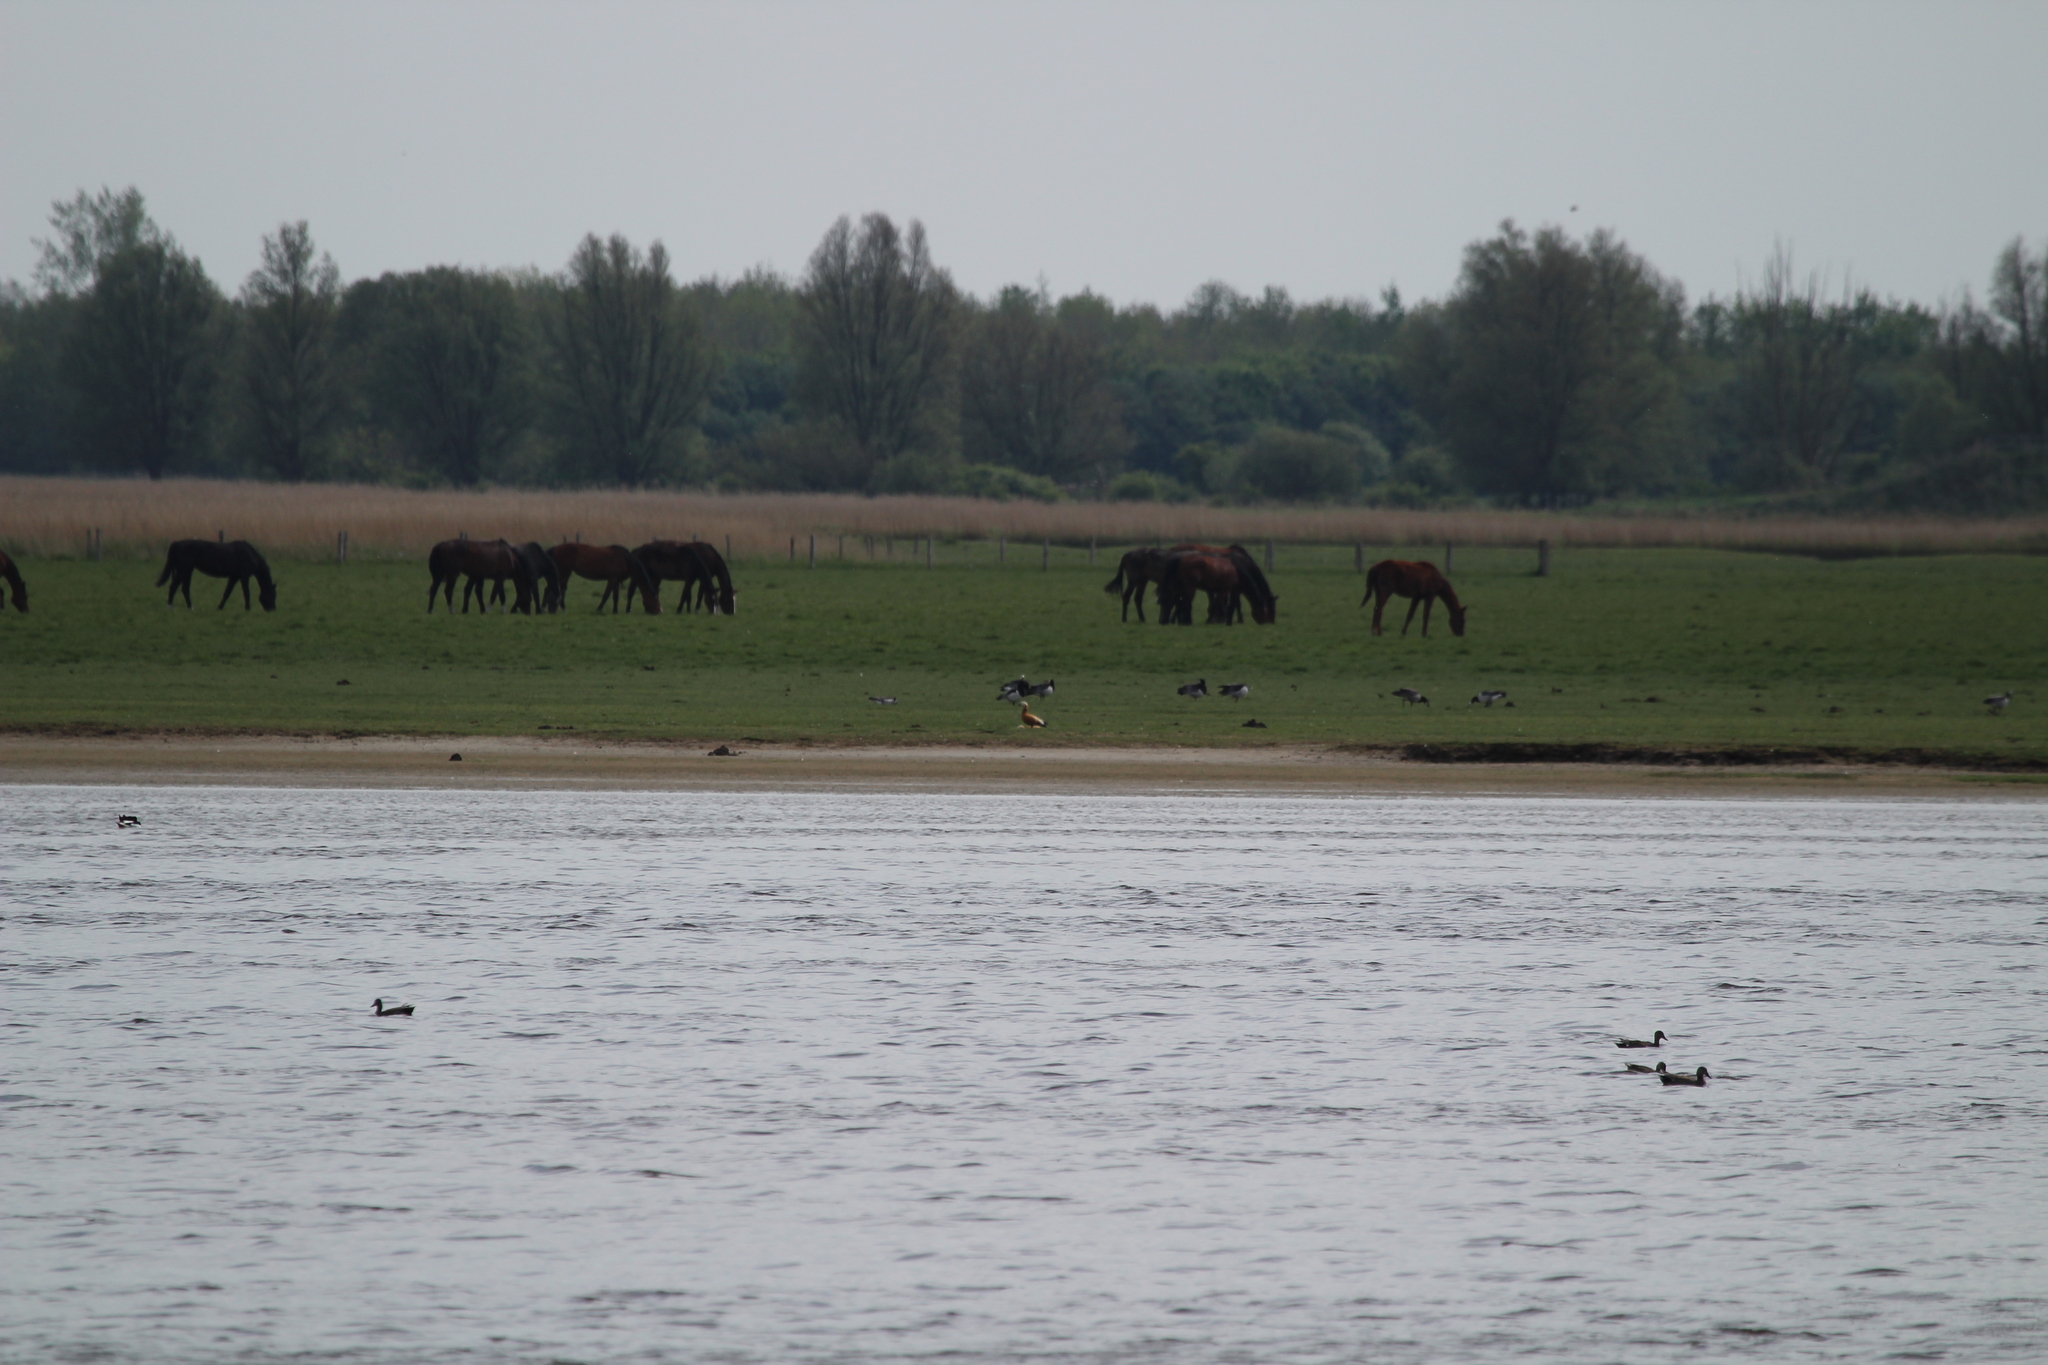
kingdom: Animalia
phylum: Chordata
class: Aves
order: Anseriformes
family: Anatidae
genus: Tadorna
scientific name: Tadorna ferruginea
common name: Ruddy shelduck
